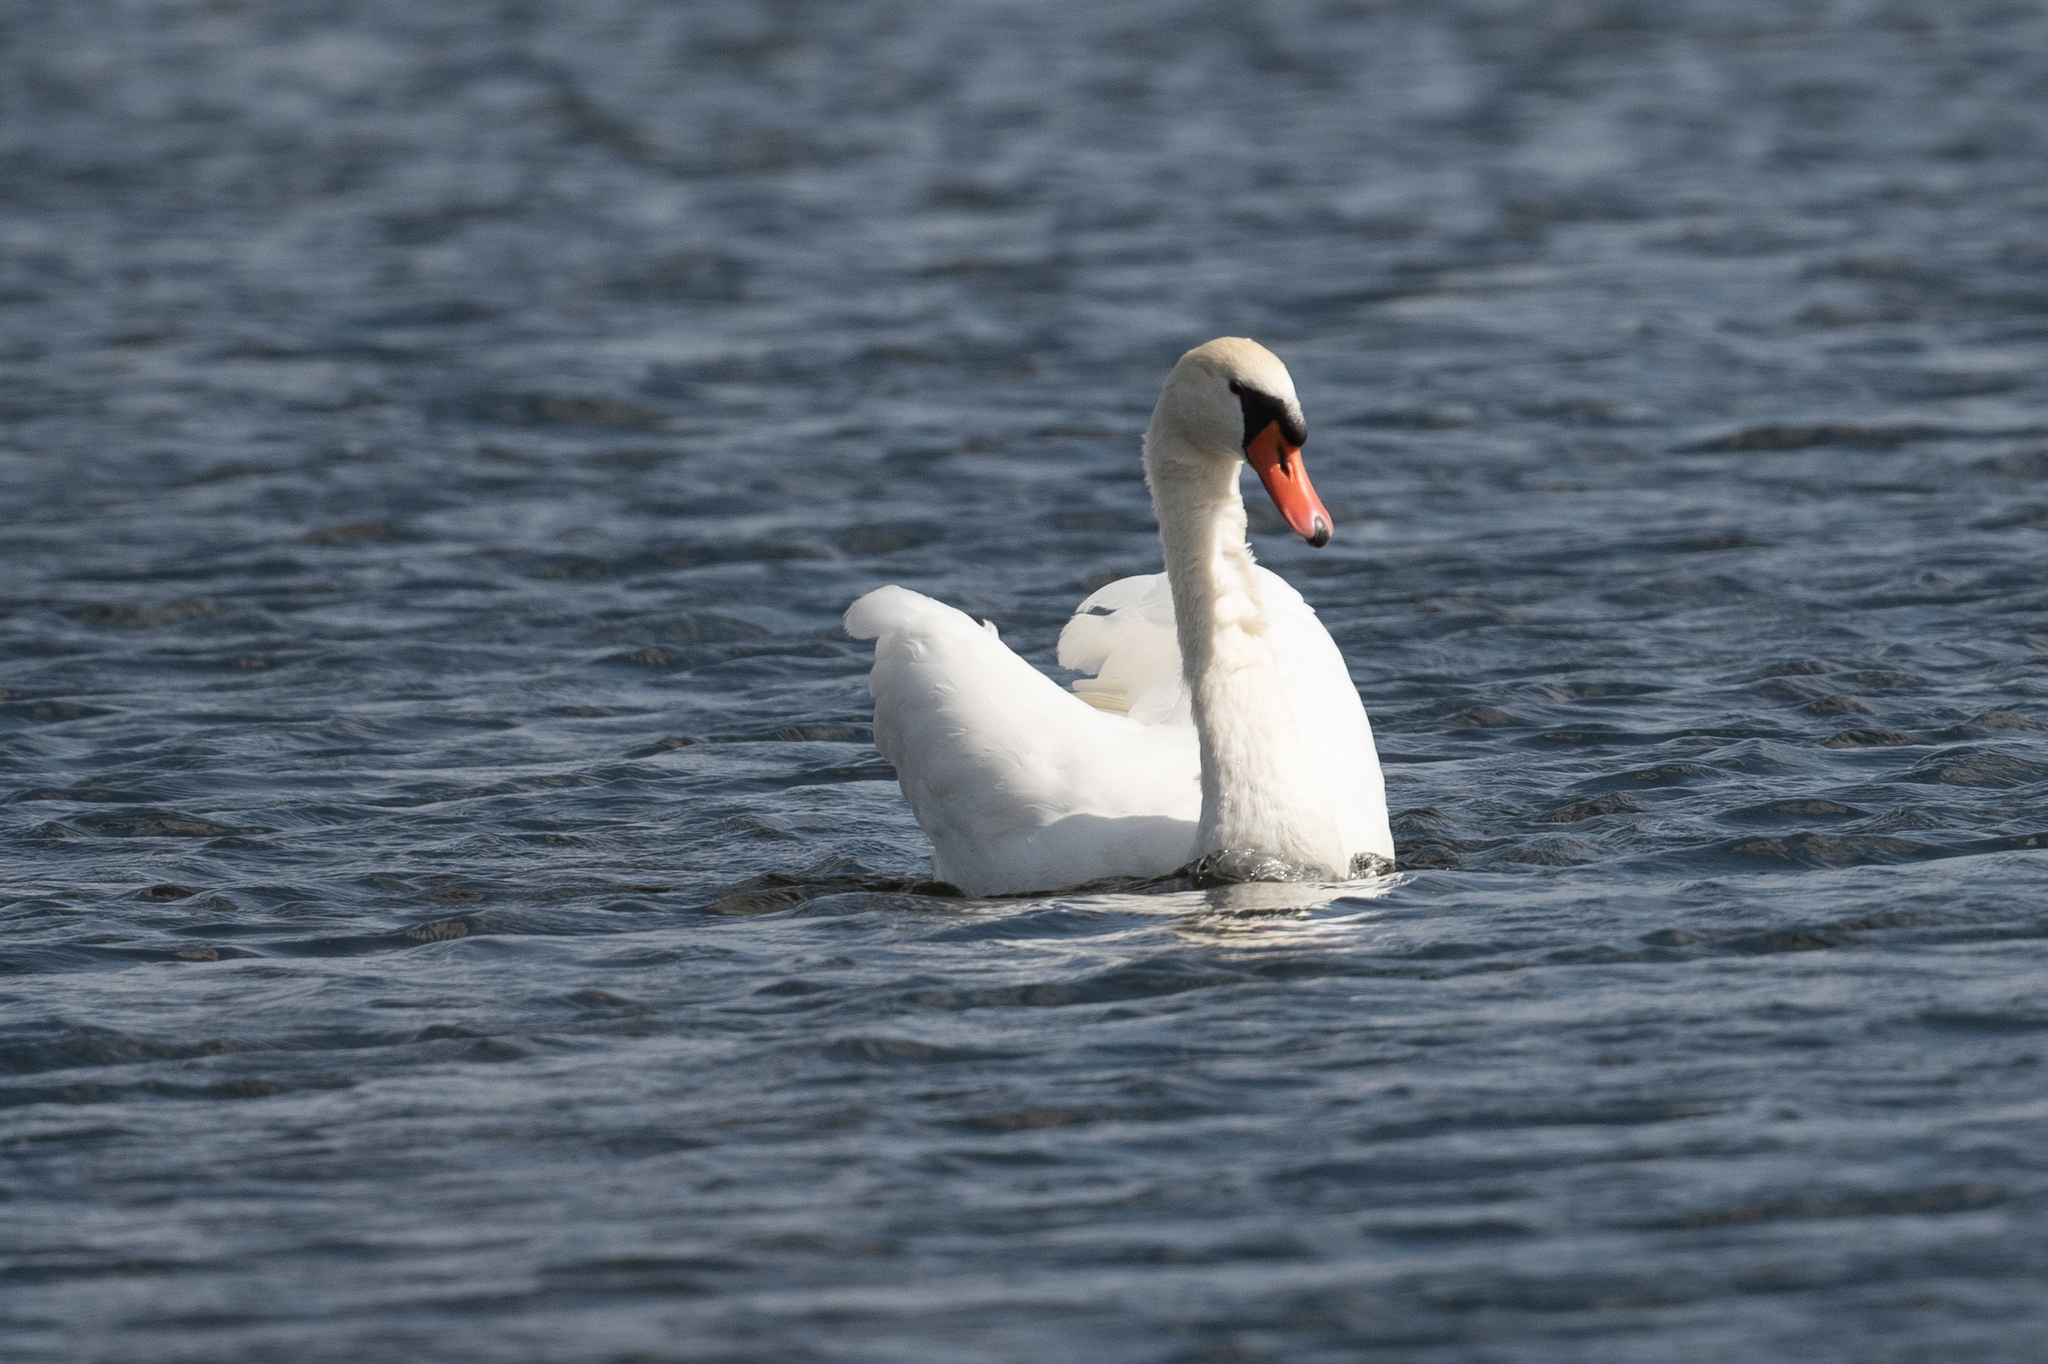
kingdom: Animalia
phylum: Chordata
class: Aves
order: Anseriformes
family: Anatidae
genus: Cygnus
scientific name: Cygnus olor
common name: Mute swan
